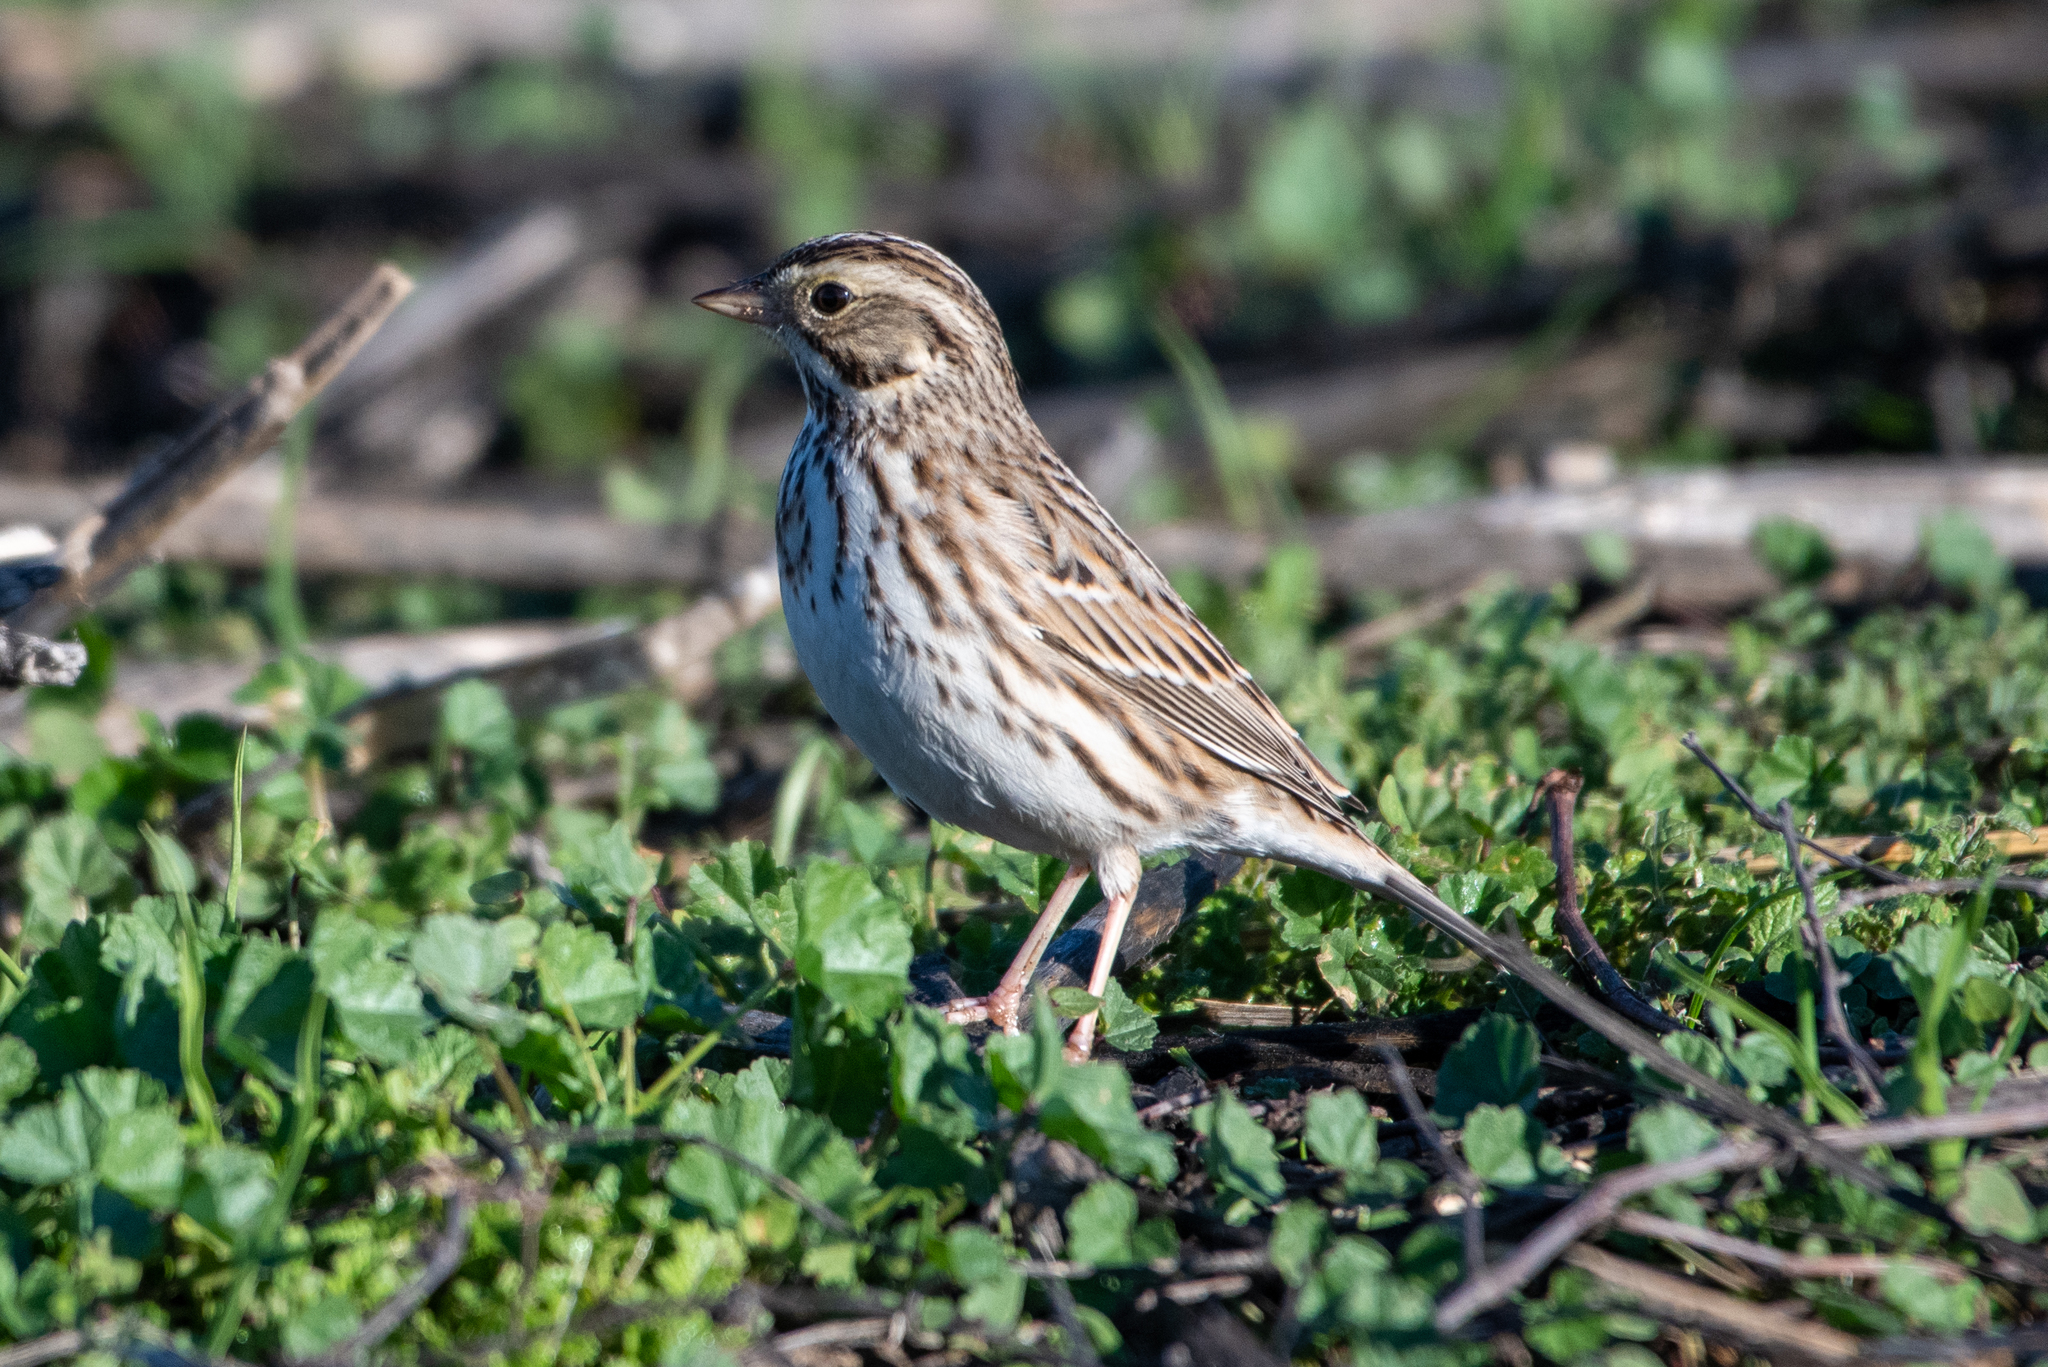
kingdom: Animalia
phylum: Chordata
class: Aves
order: Passeriformes
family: Passerellidae
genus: Passerculus
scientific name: Passerculus sandwichensis
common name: Savannah sparrow
